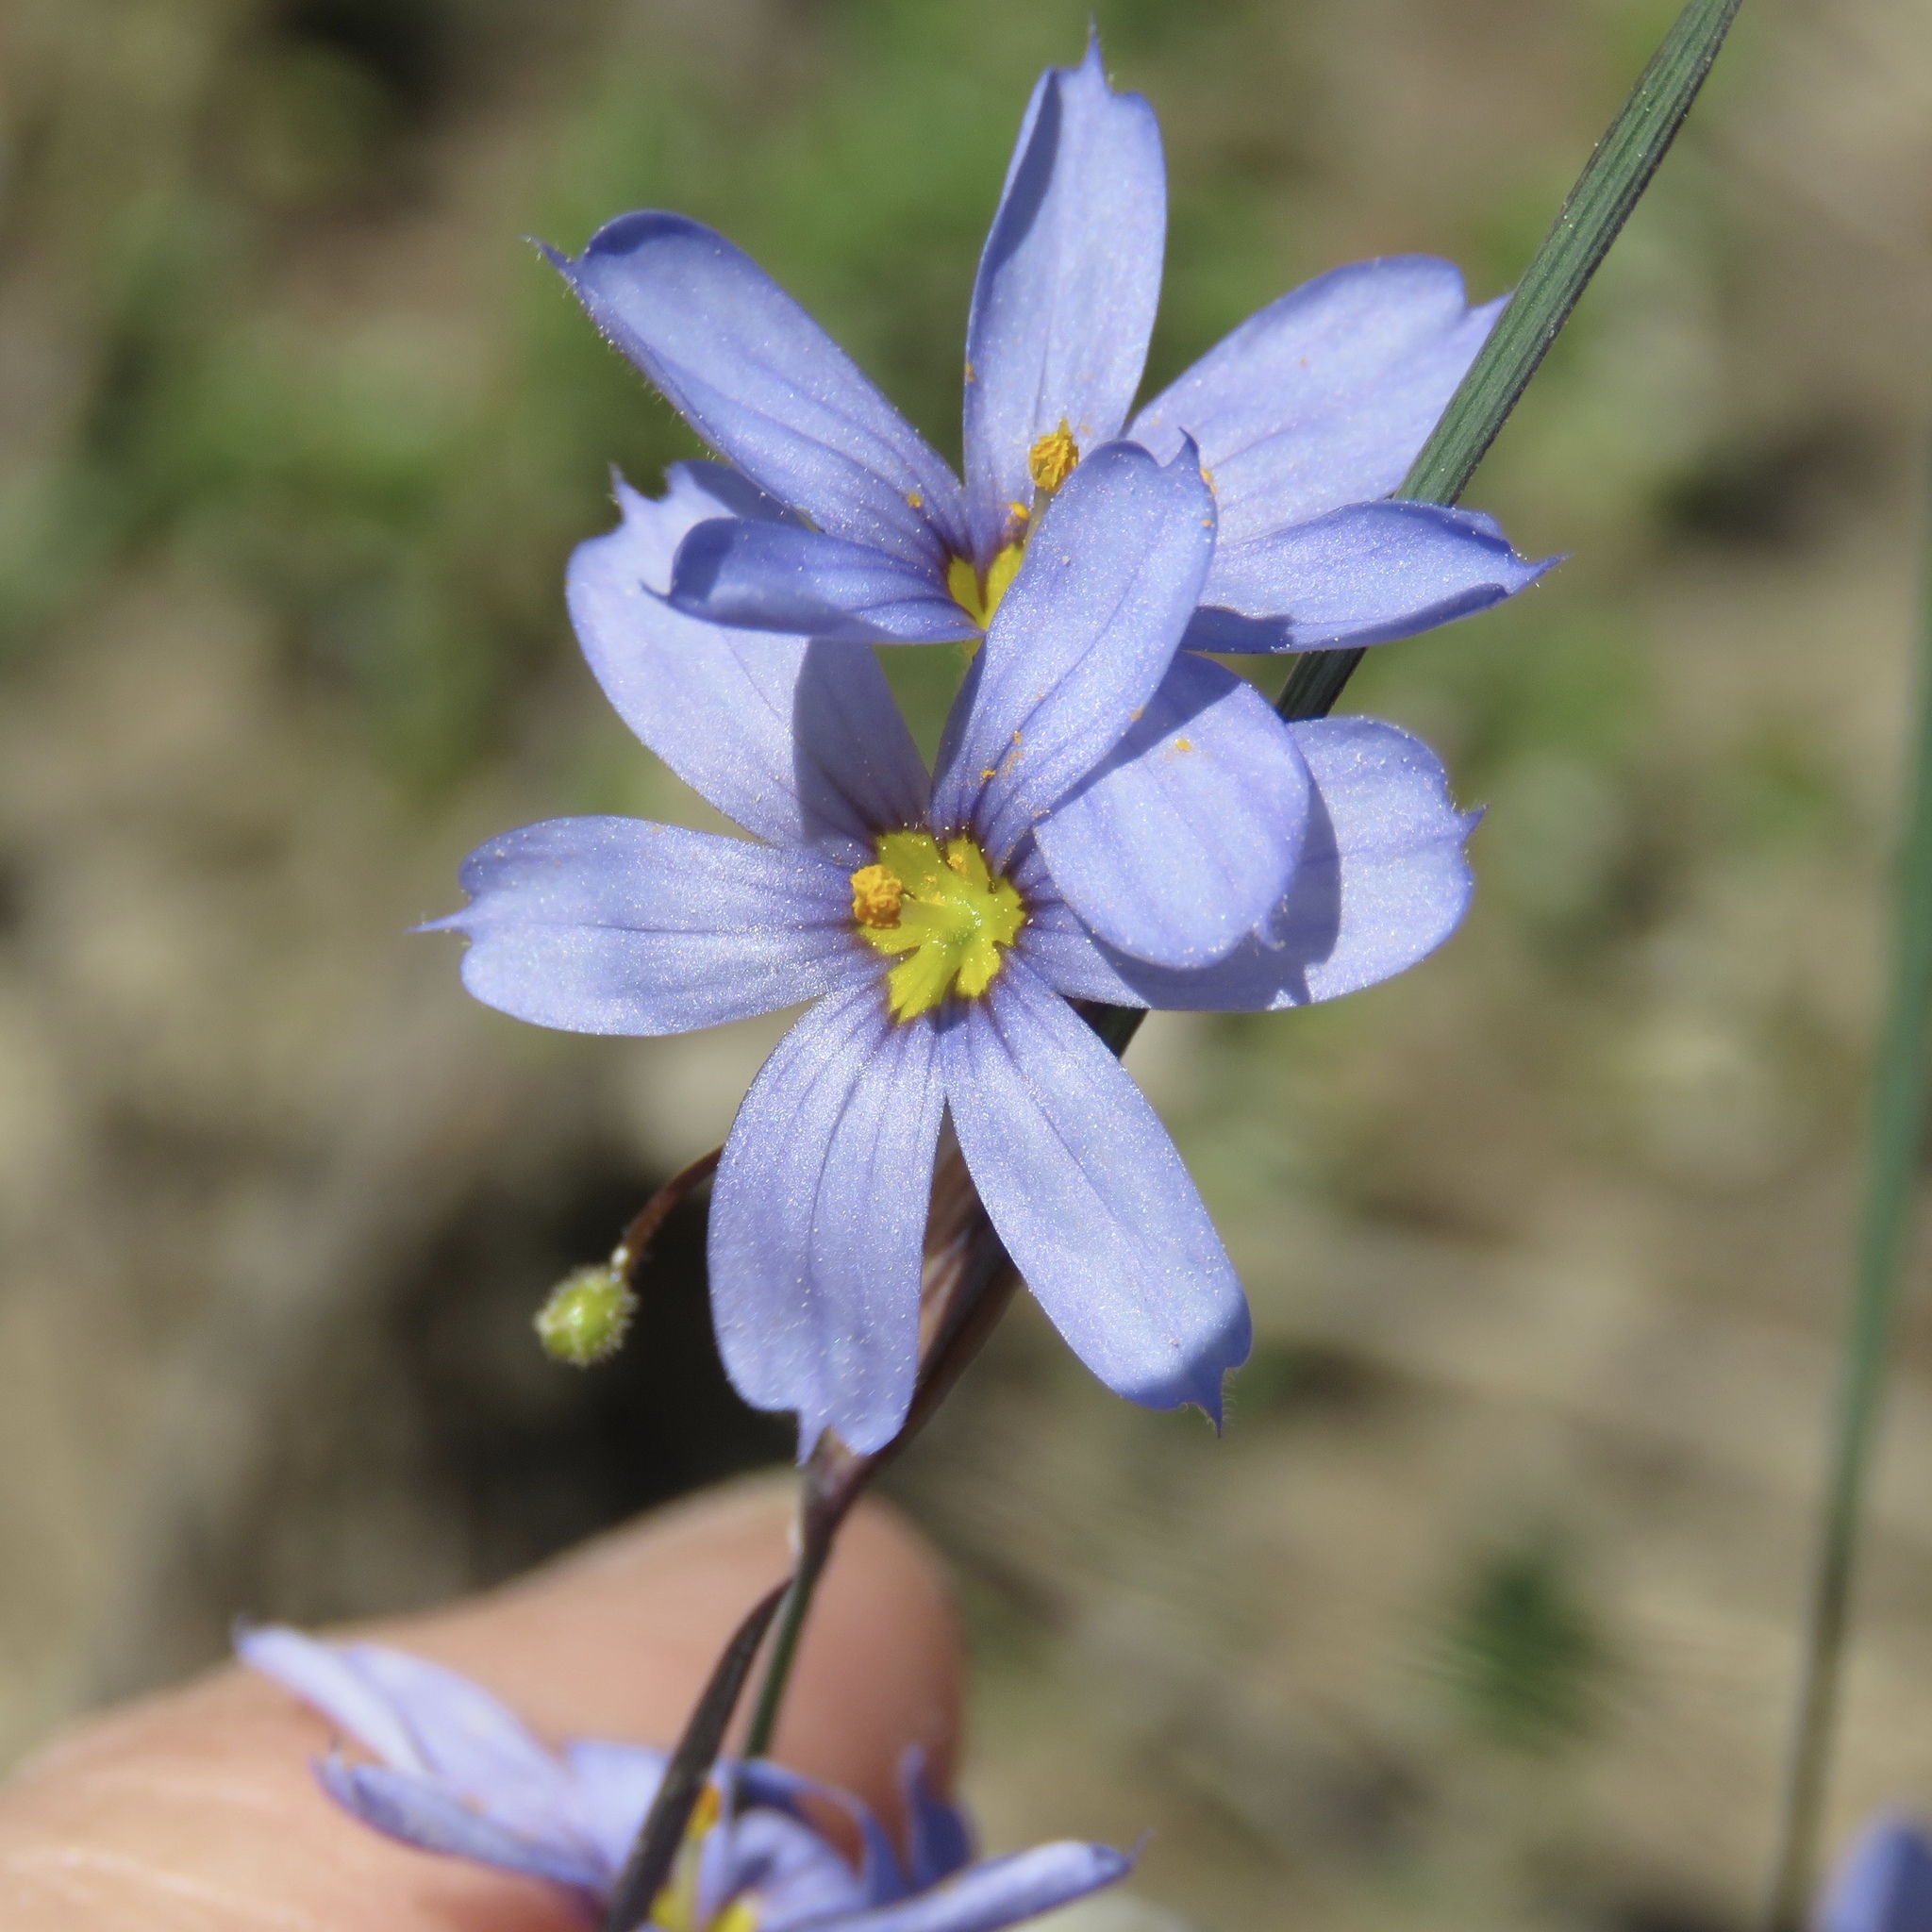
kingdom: Plantae
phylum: Tracheophyta
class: Liliopsida
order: Asparagales
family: Iridaceae
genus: Sisyrinchium
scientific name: Sisyrinchium sagittiferum
